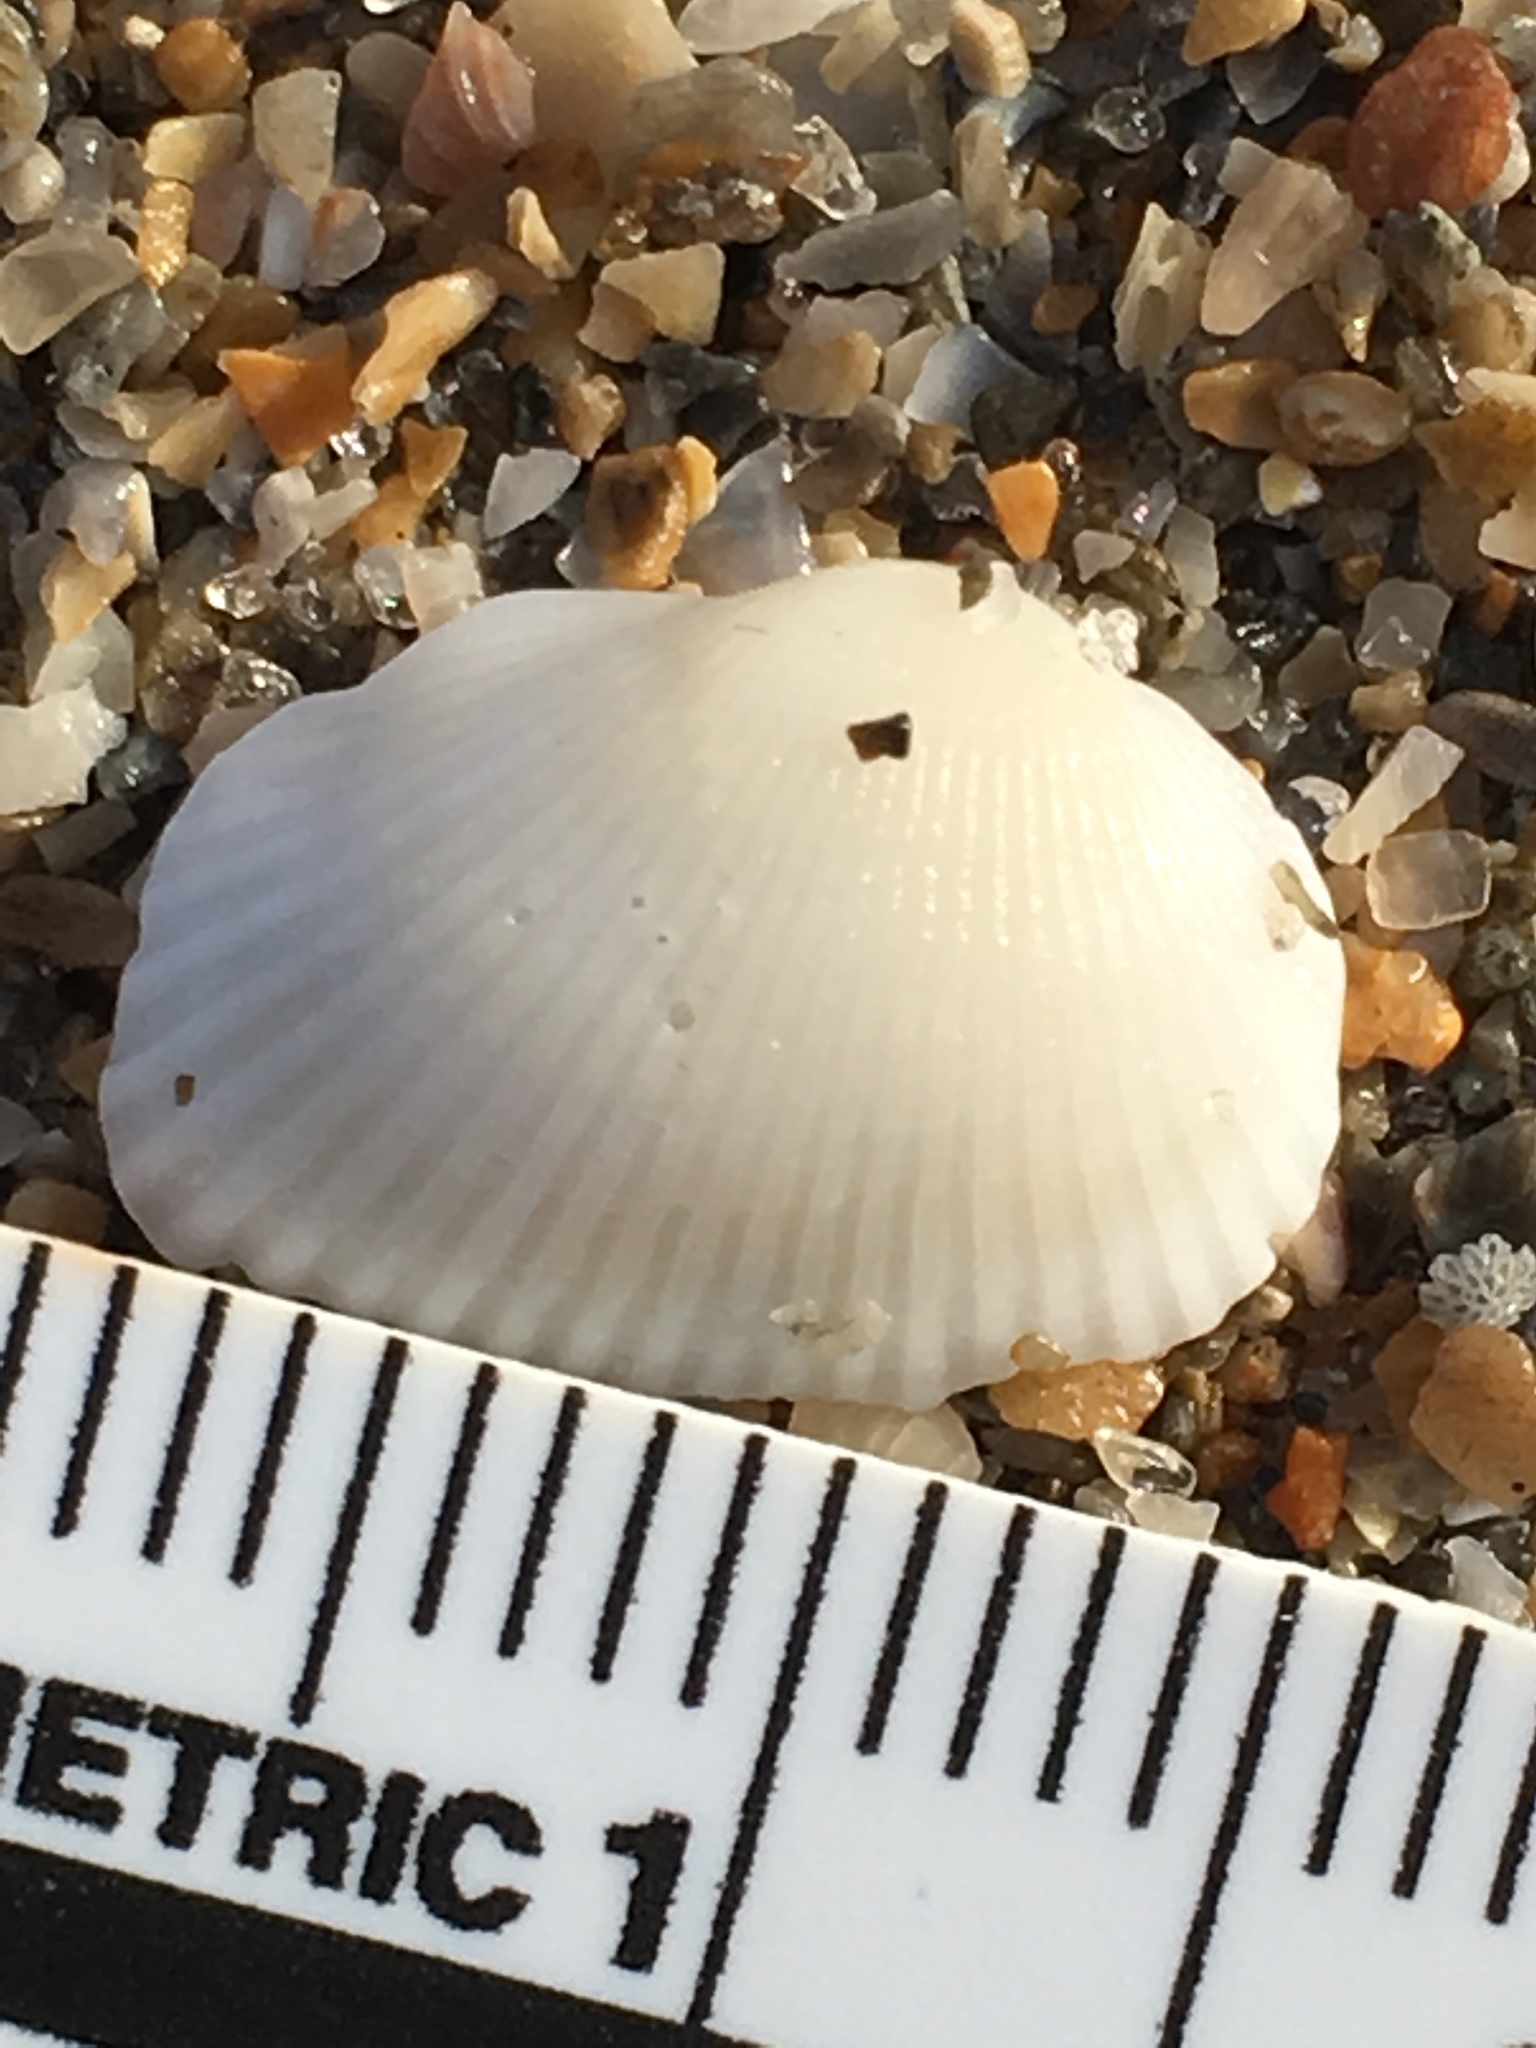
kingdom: Animalia
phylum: Mollusca
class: Bivalvia
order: Arcida
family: Arcidae
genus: Anadara
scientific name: Anadara transversa
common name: Transverse ark
